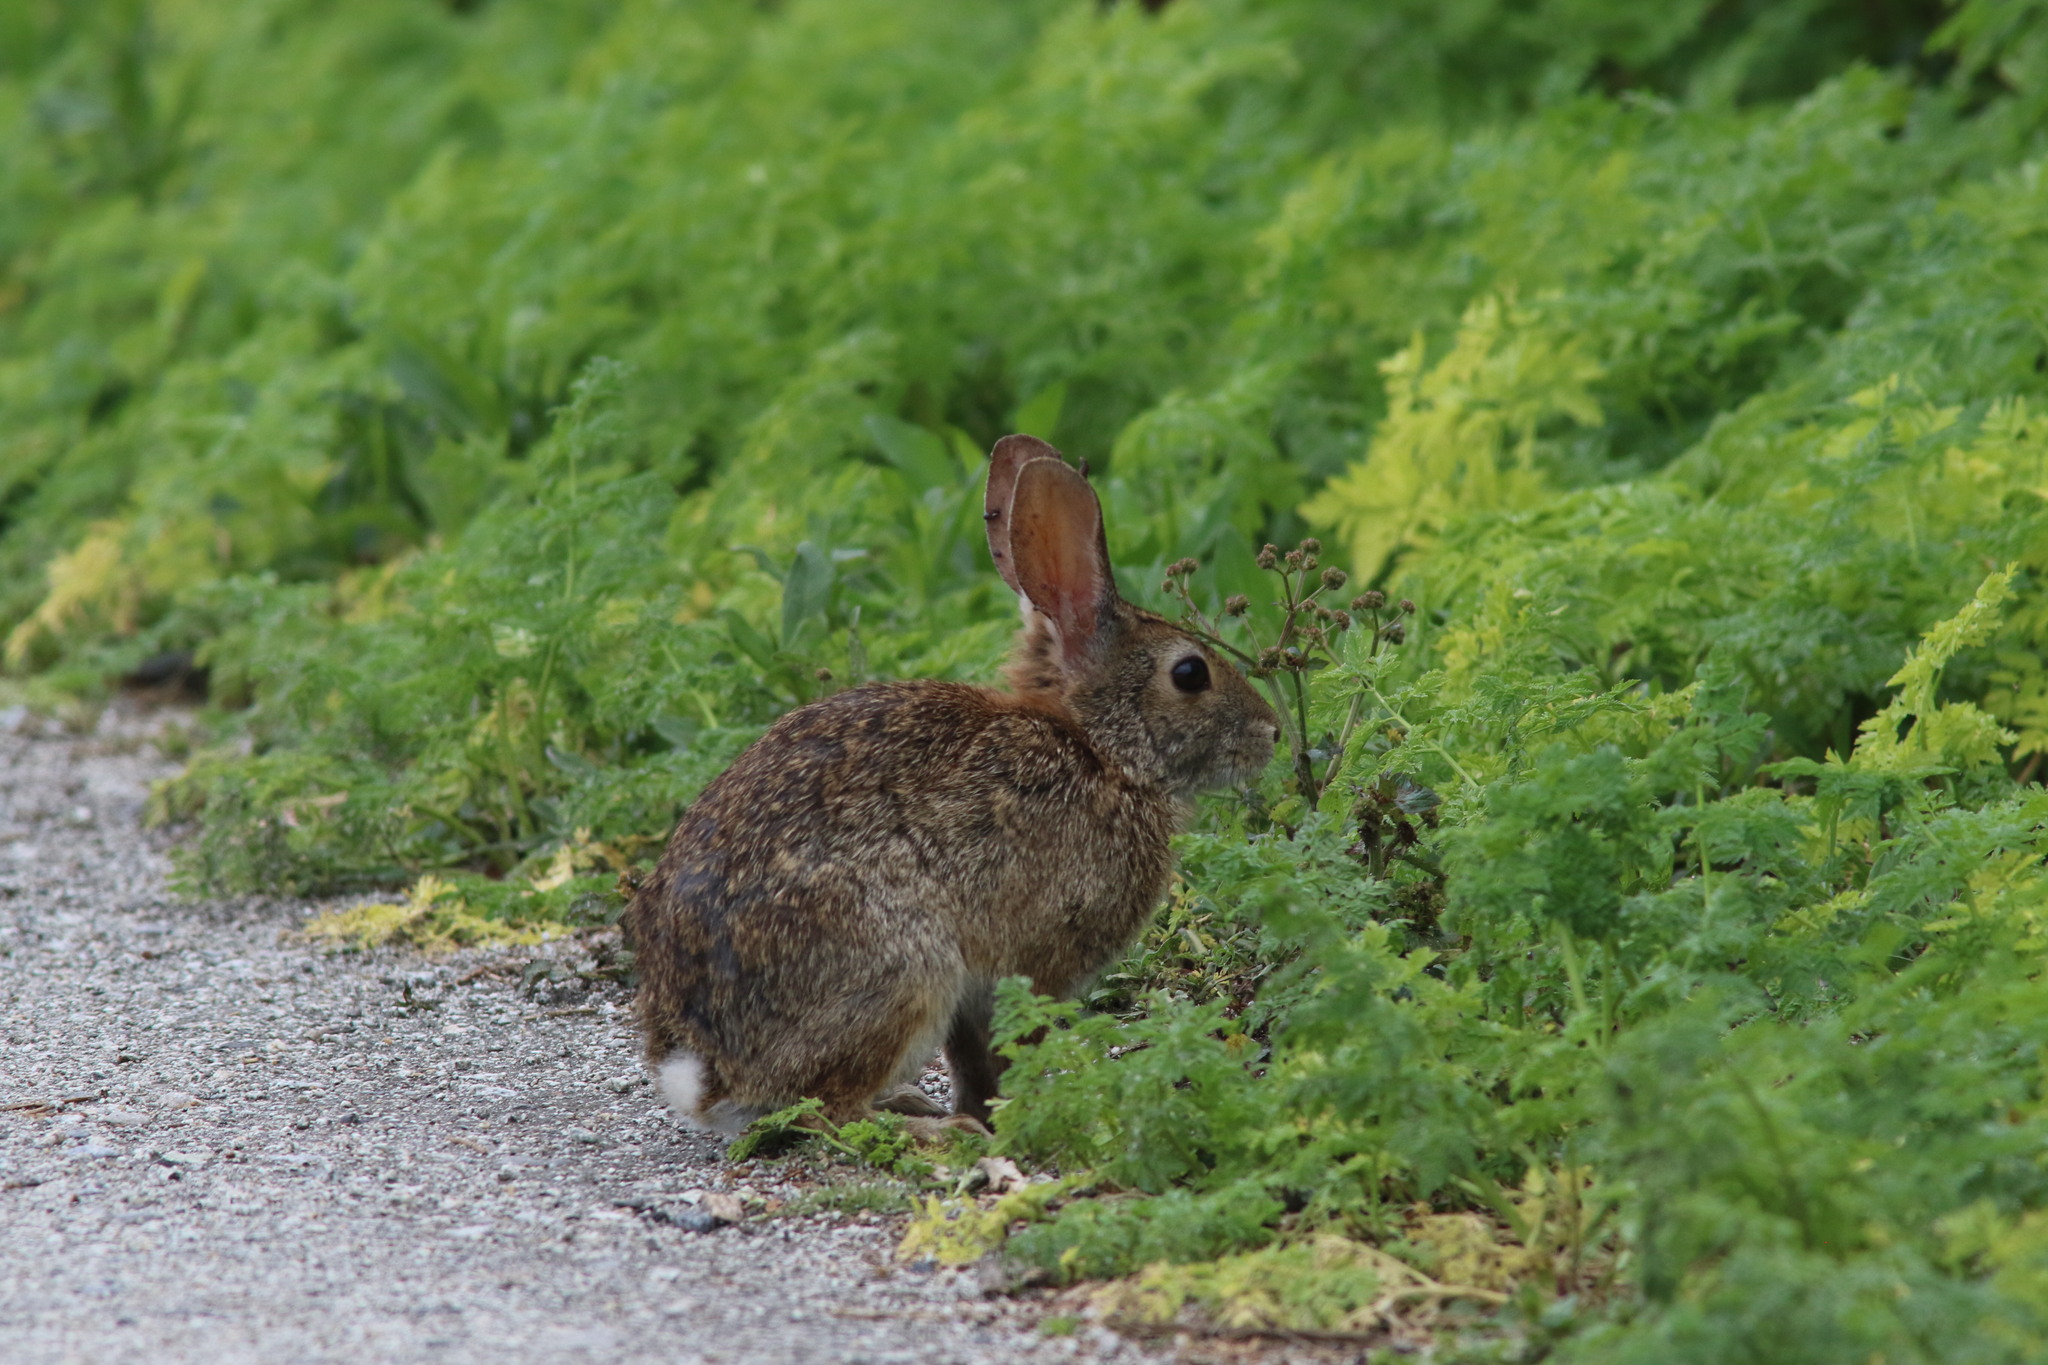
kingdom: Animalia
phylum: Chordata
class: Mammalia
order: Lagomorpha
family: Leporidae
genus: Sylvilagus
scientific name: Sylvilagus bachmani
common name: Brush rabbit
